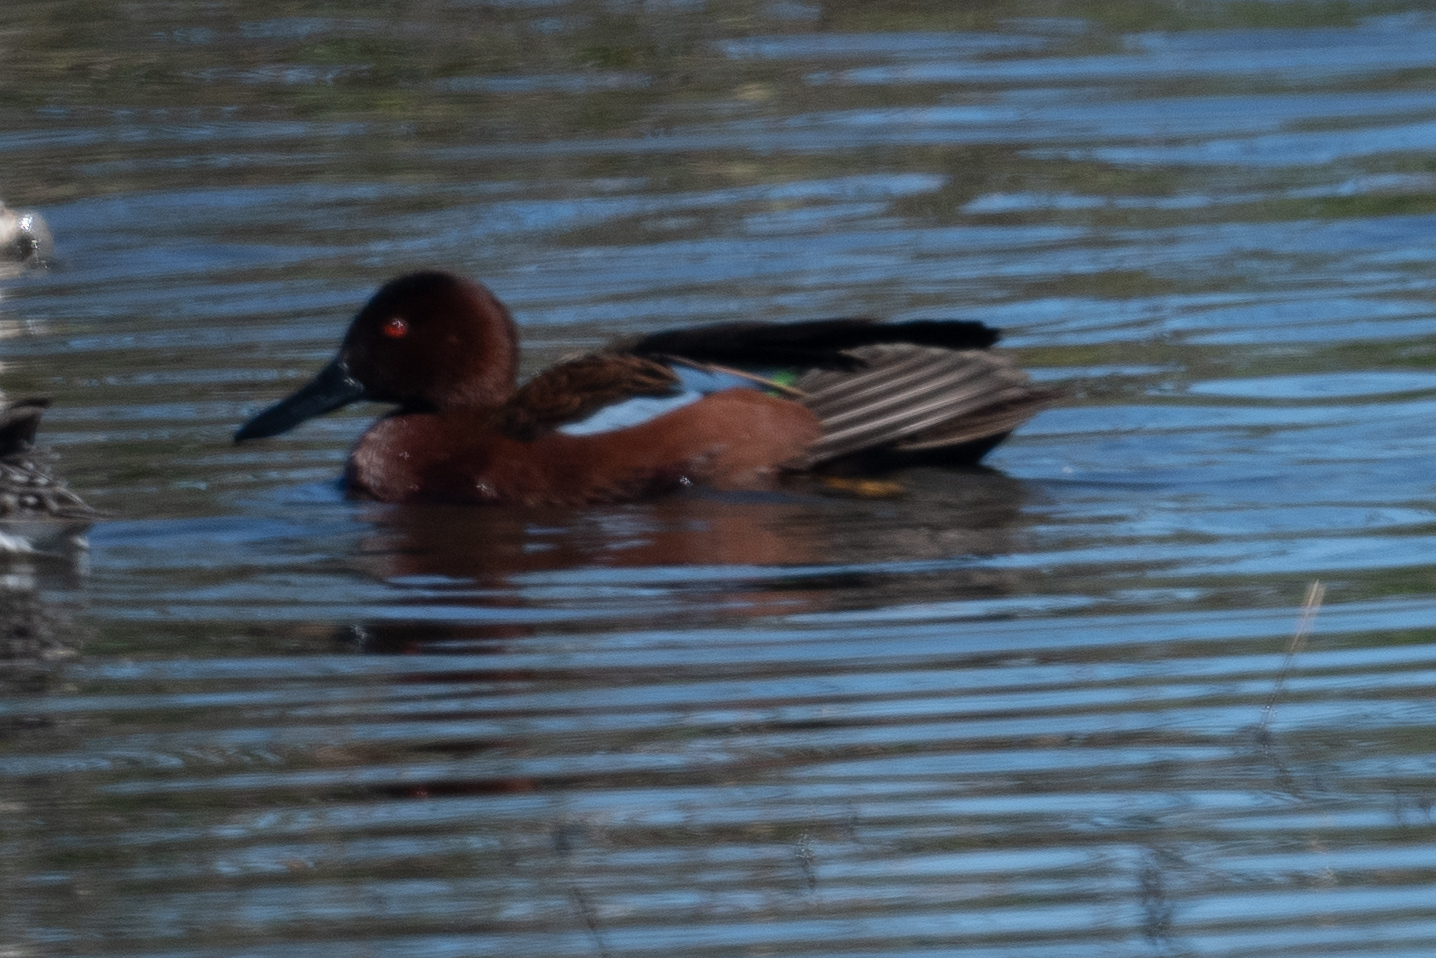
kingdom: Animalia
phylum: Chordata
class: Aves
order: Anseriformes
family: Anatidae
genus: Spatula
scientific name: Spatula cyanoptera
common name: Cinnamon teal
